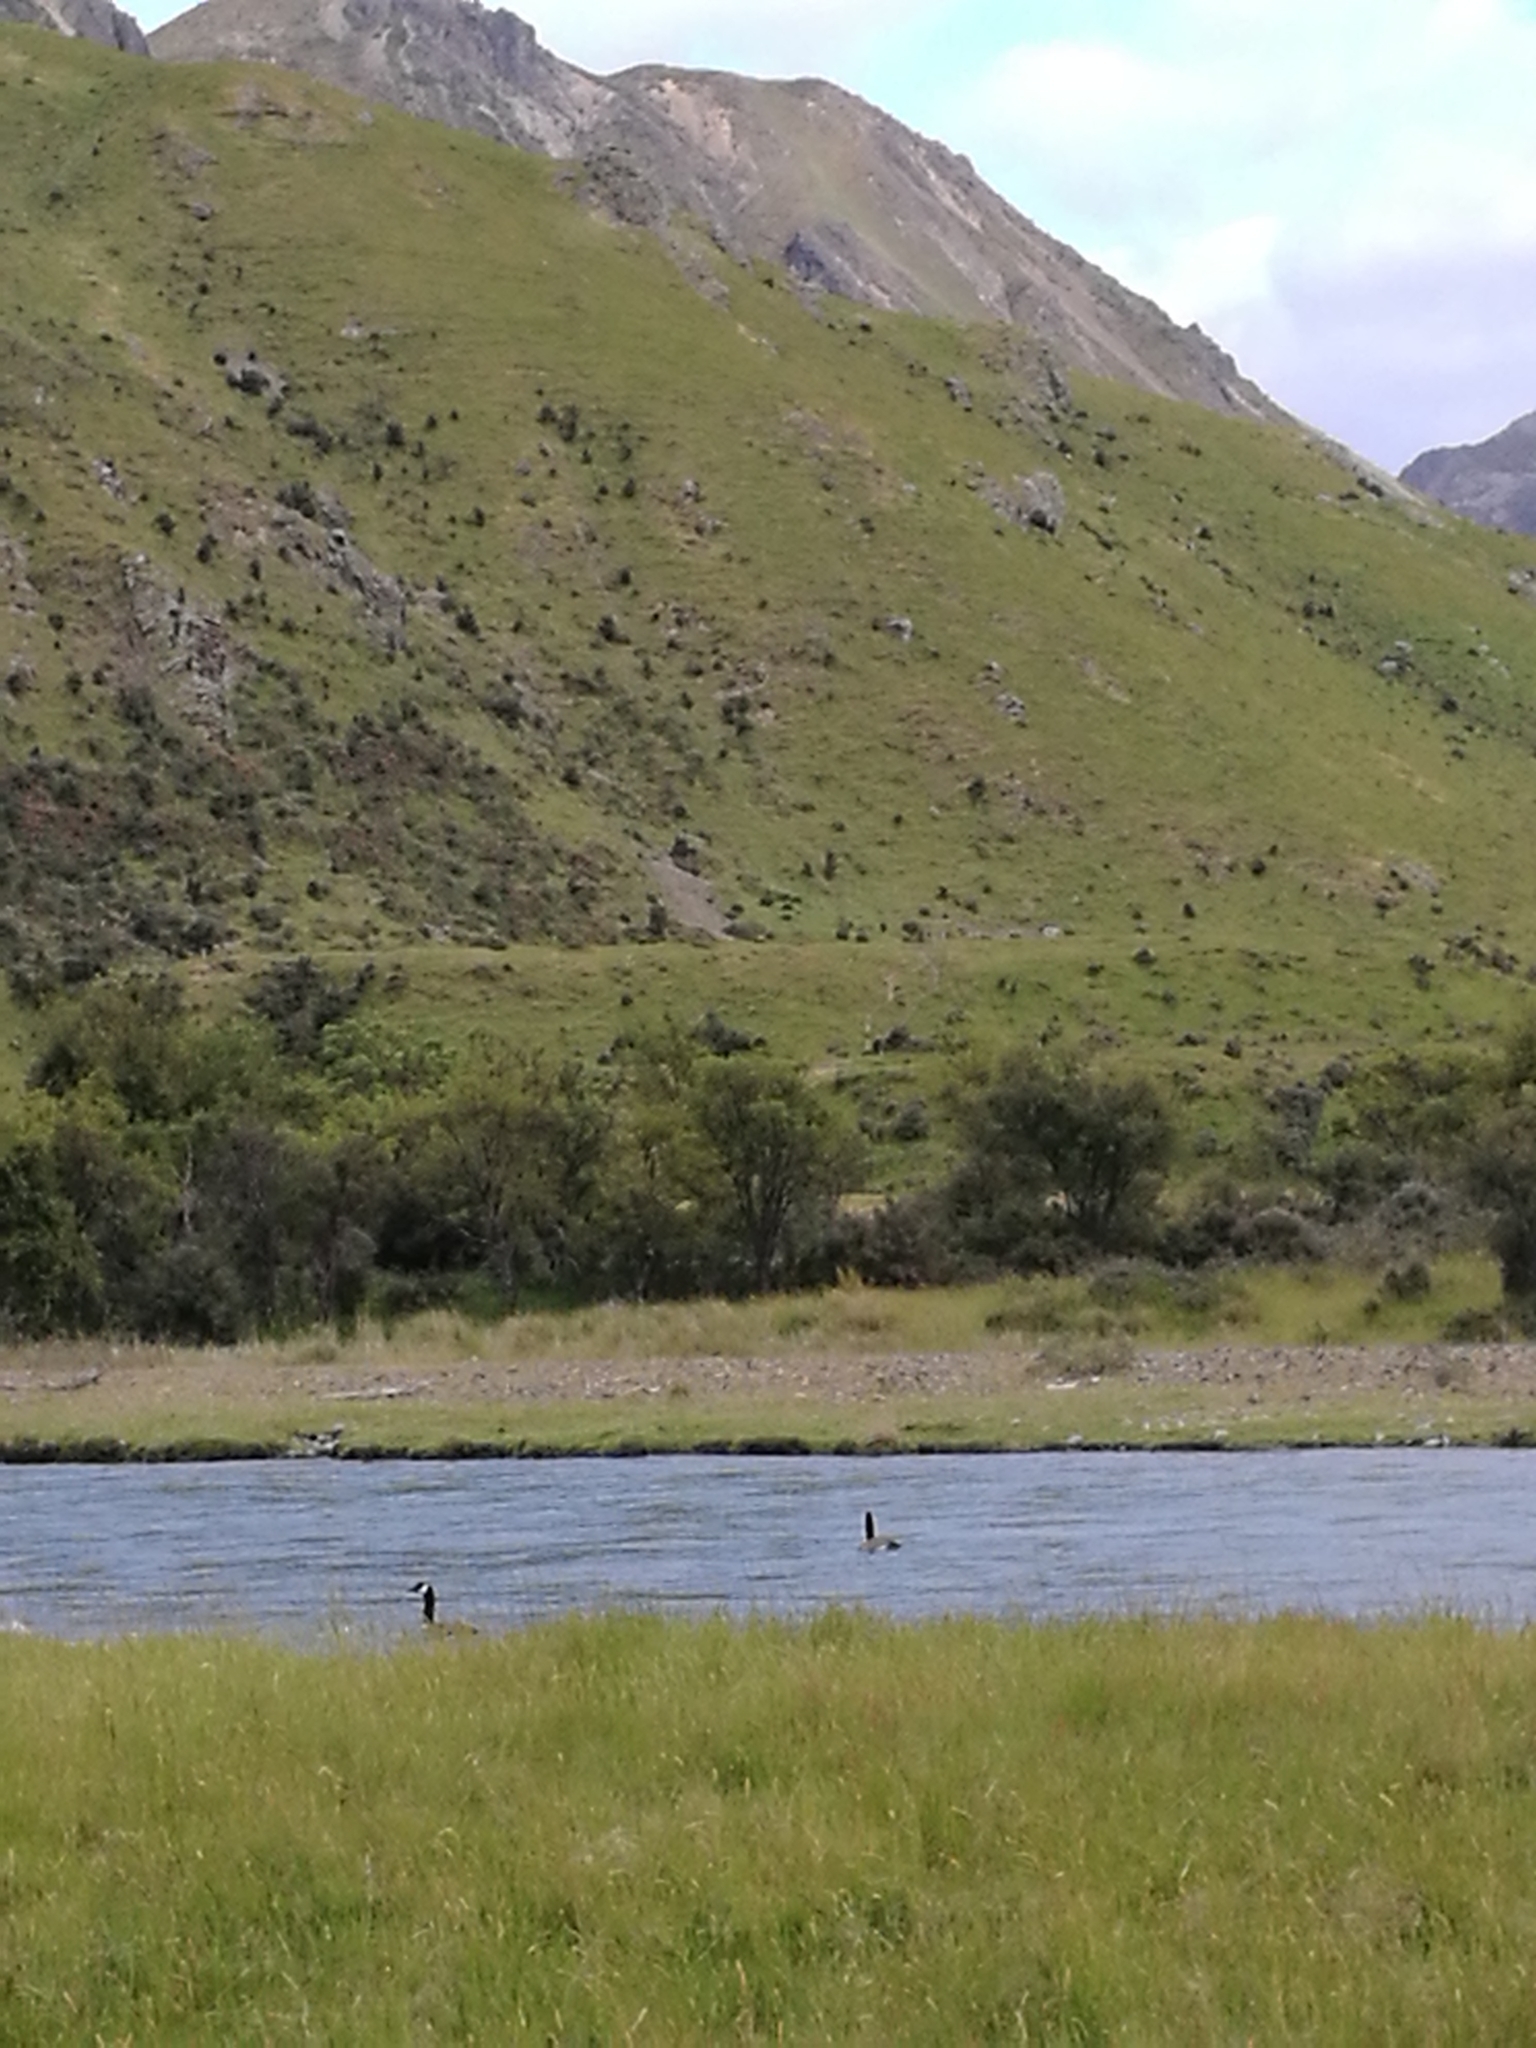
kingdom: Animalia
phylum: Chordata
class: Aves
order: Anseriformes
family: Anatidae
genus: Branta
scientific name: Branta canadensis
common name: Canada goose
